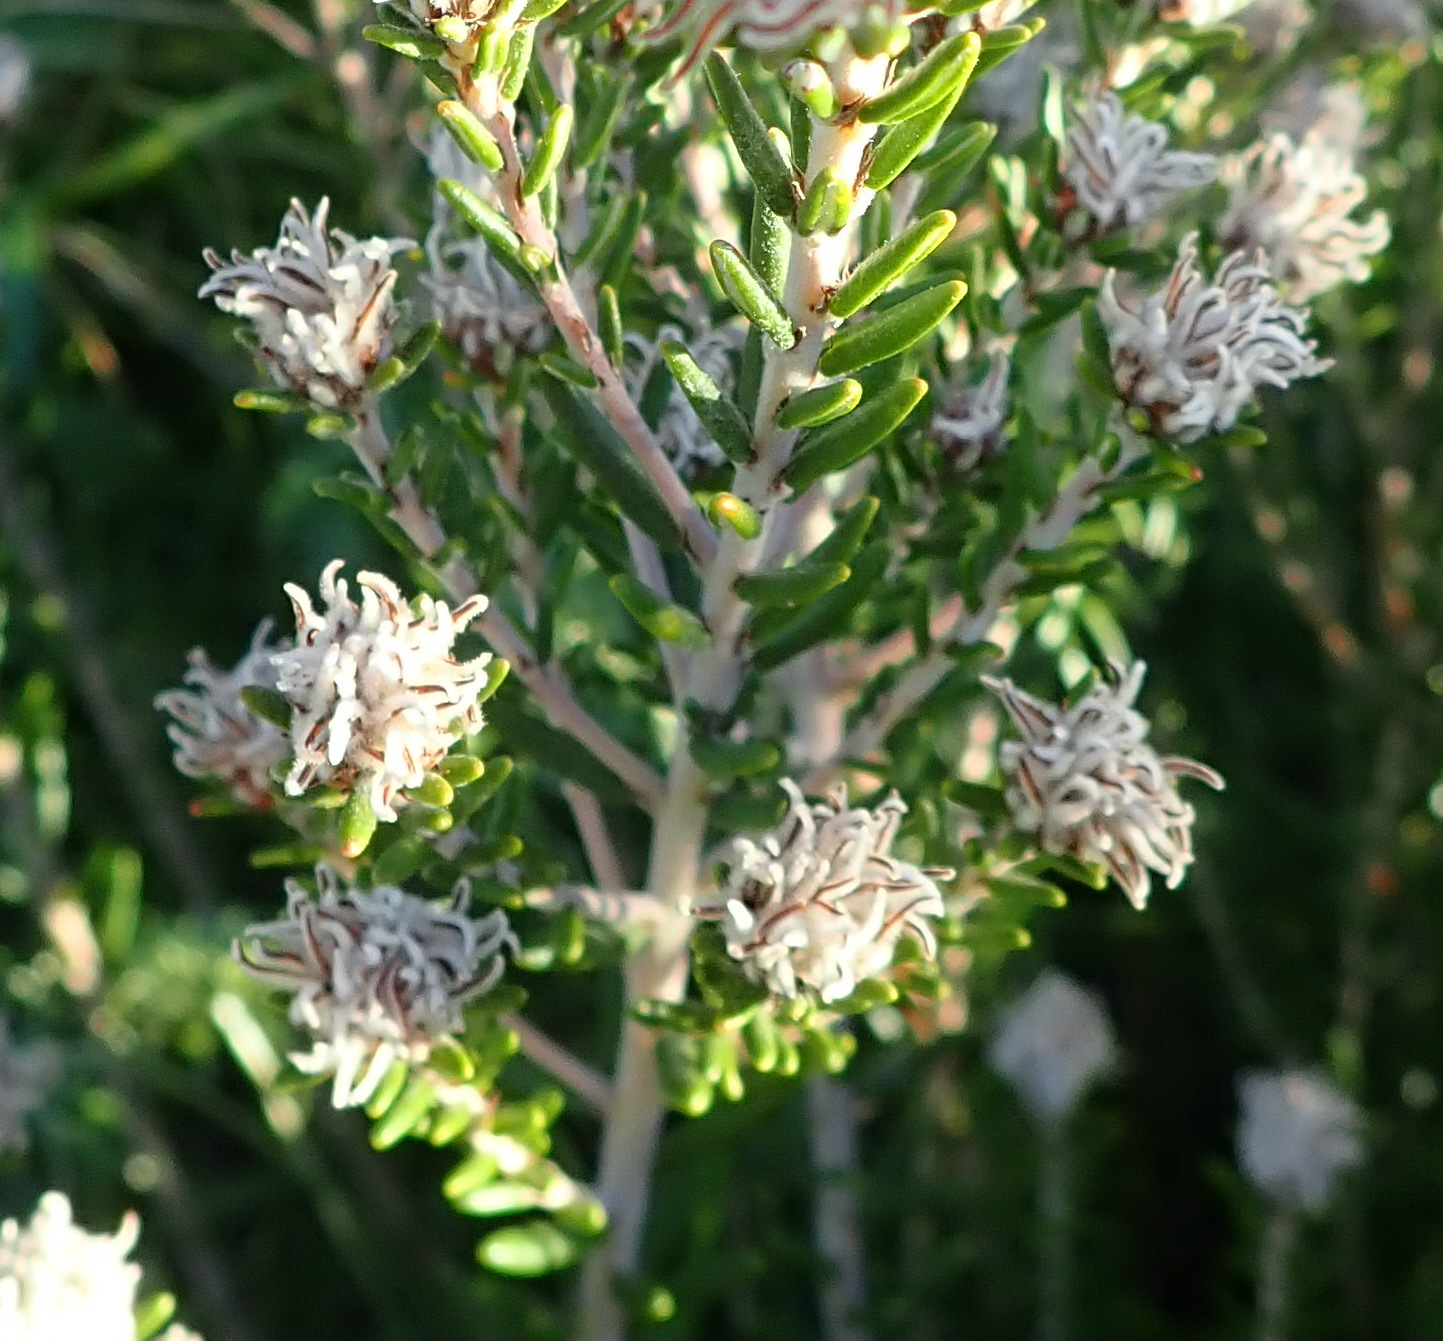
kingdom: Plantae
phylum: Tracheophyta
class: Magnoliopsida
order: Rosales
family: Rhamnaceae
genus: Trichocephalus
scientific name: Trichocephalus stipularis
